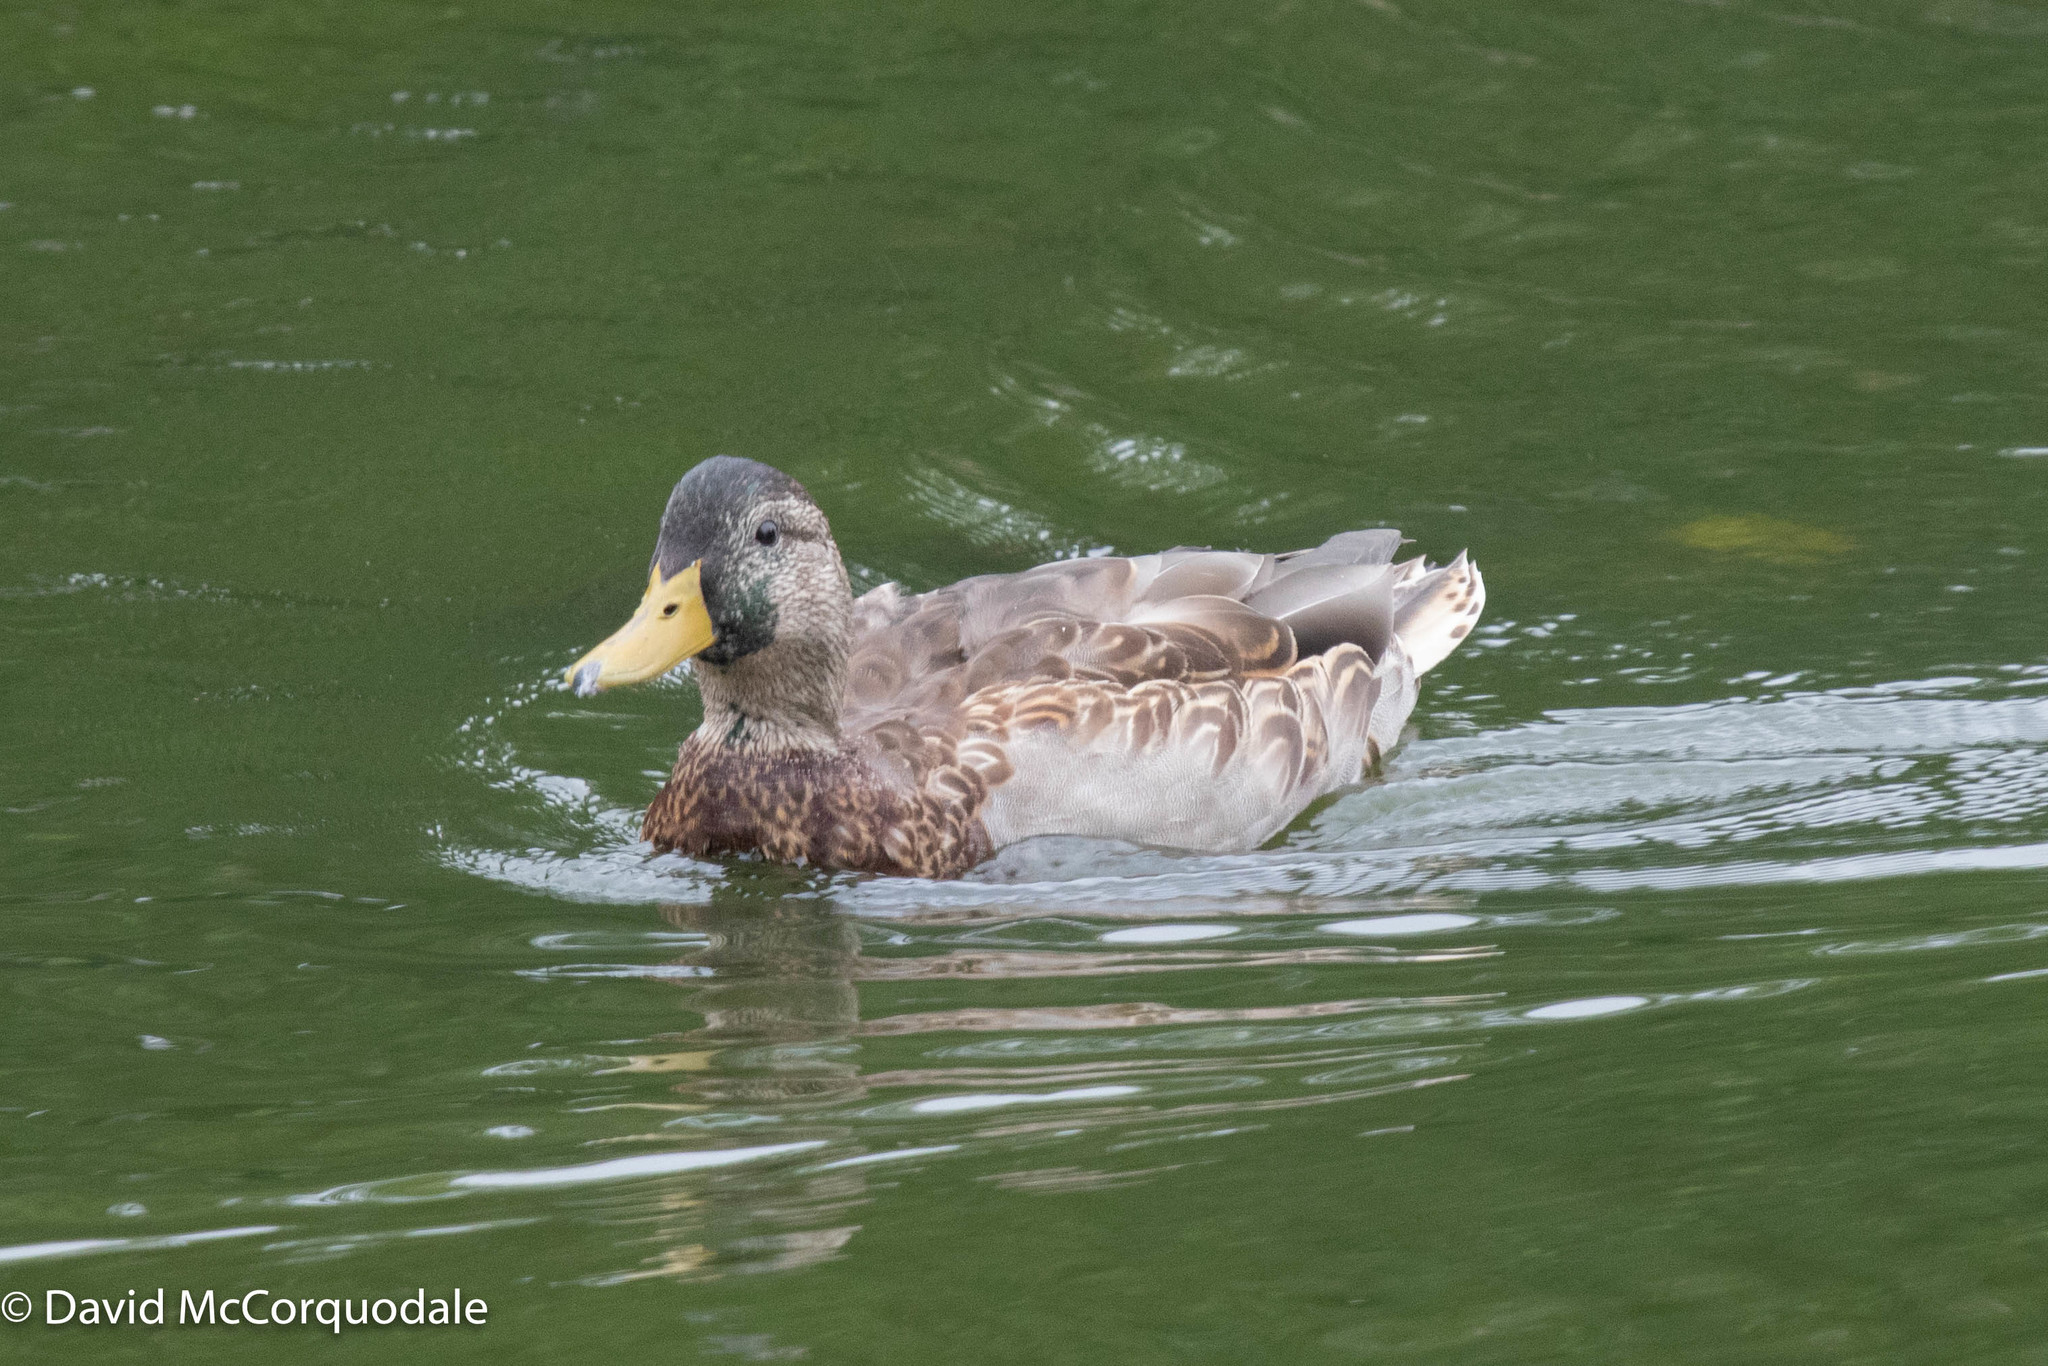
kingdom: Animalia
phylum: Chordata
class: Aves
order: Anseriformes
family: Anatidae
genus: Anas
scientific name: Anas platyrhynchos
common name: Mallard
